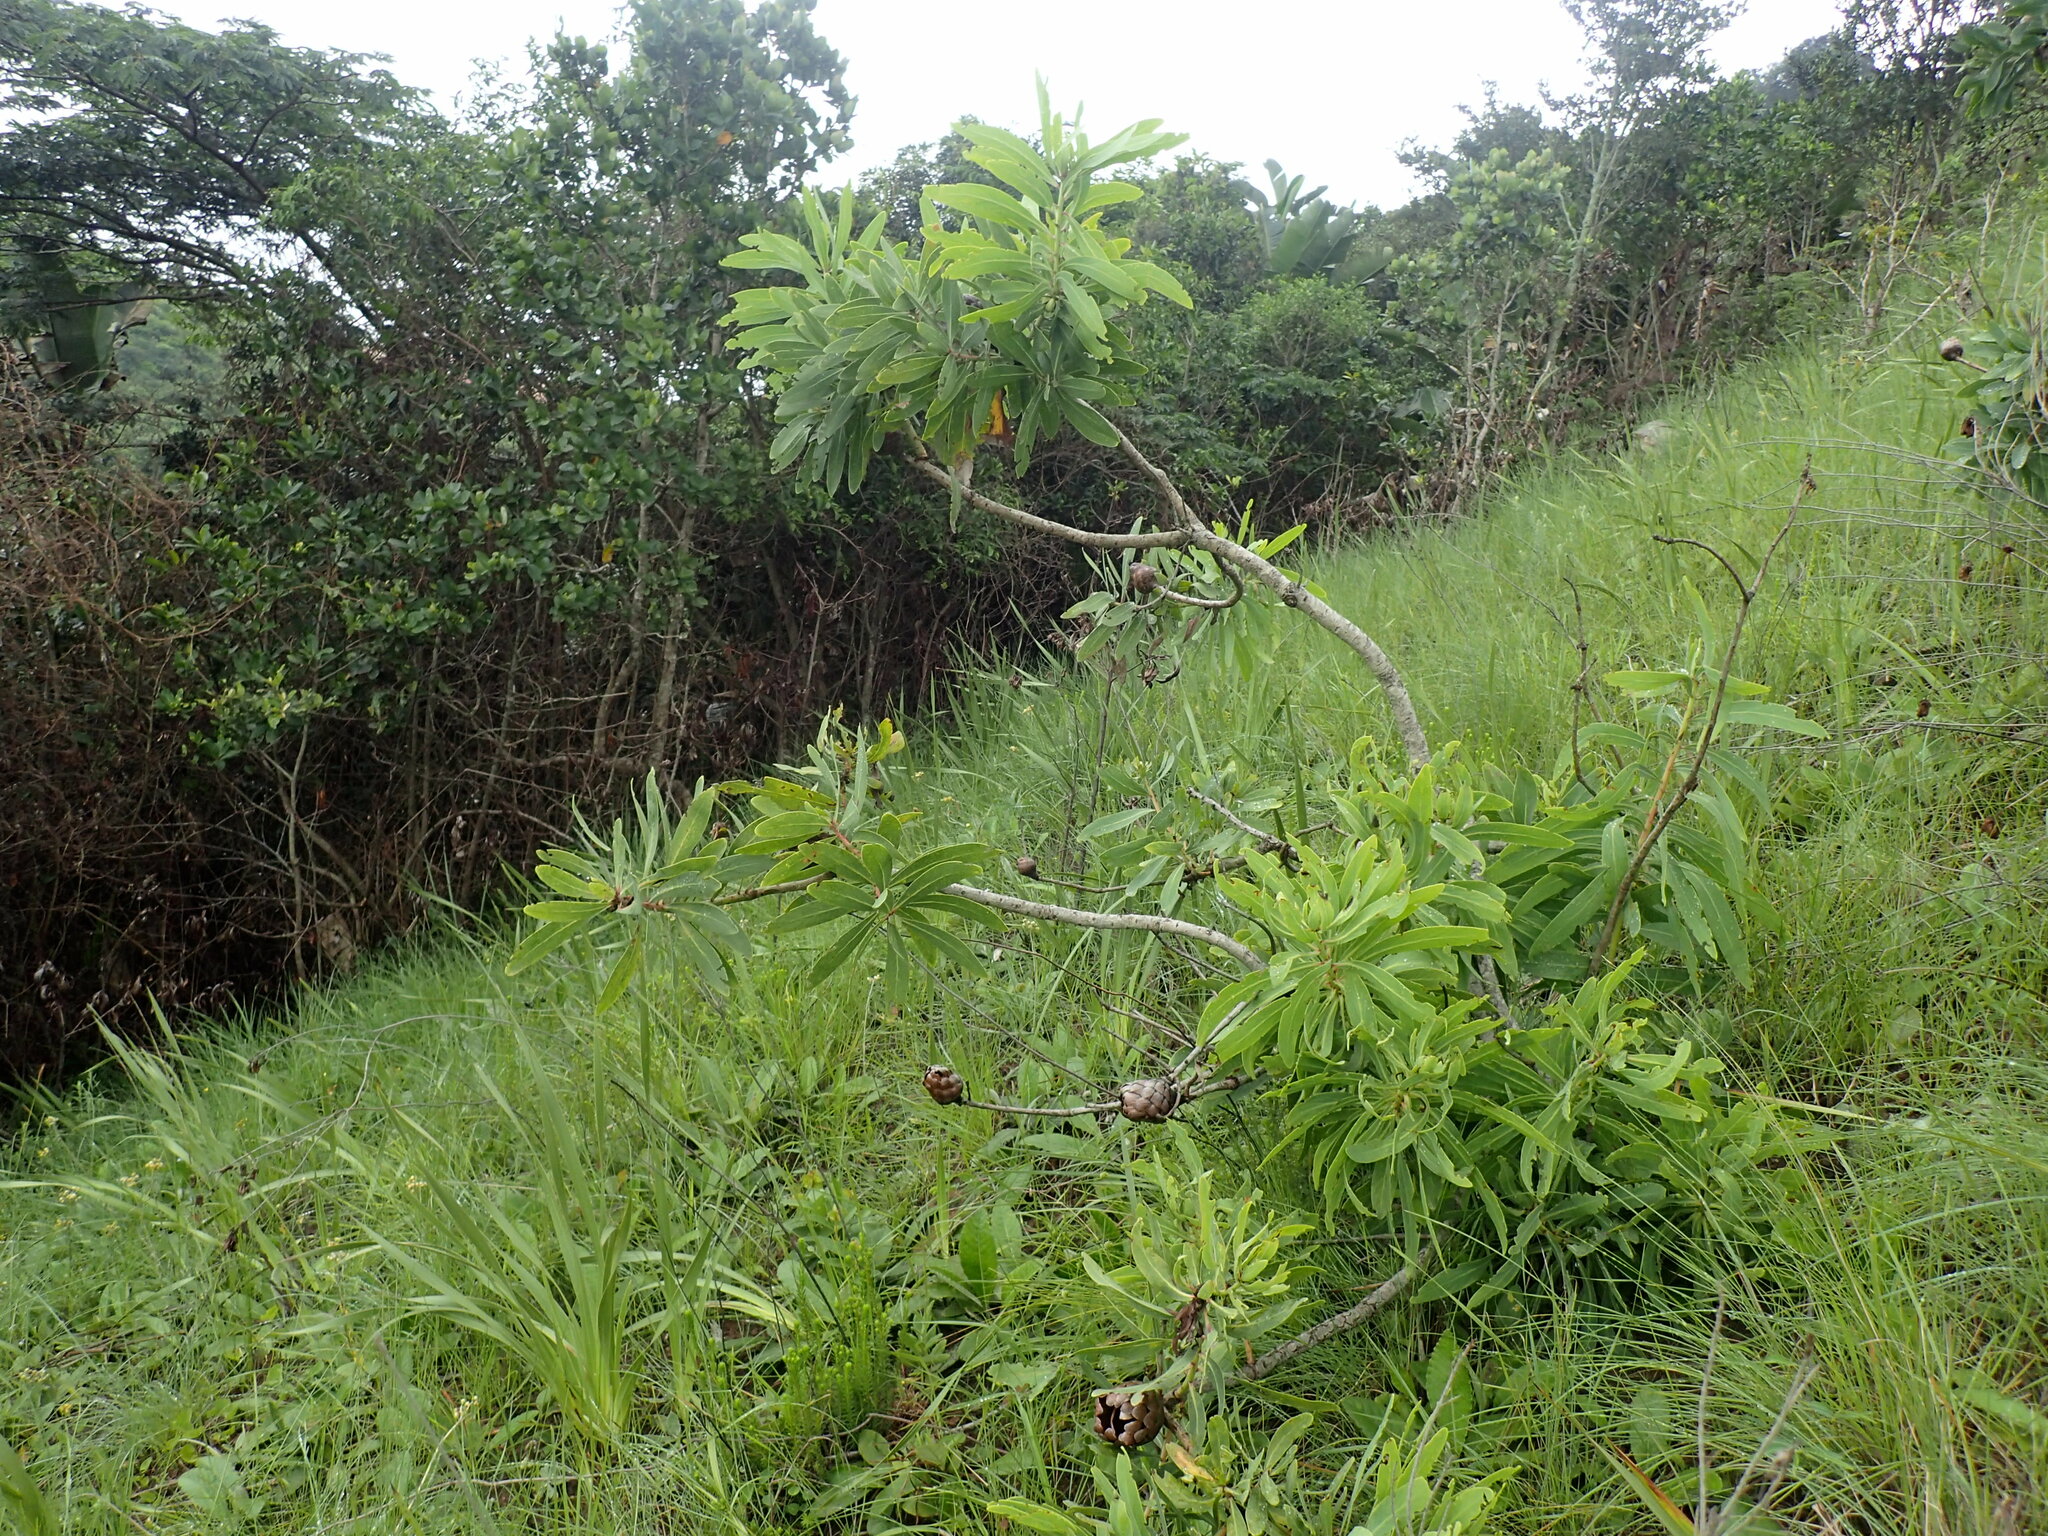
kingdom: Plantae
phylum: Tracheophyta
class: Magnoliopsida
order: Proteales
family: Proteaceae
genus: Protea
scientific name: Protea caffra
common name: Common sugarbush
